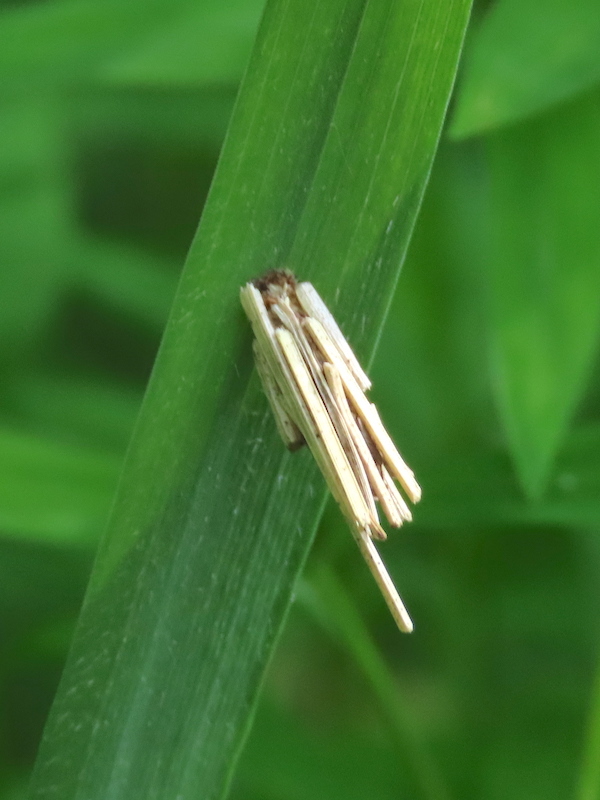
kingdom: Animalia
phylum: Arthropoda
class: Insecta
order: Lepidoptera
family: Psychidae
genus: Psyche
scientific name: Psyche casta
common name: Common sweep
